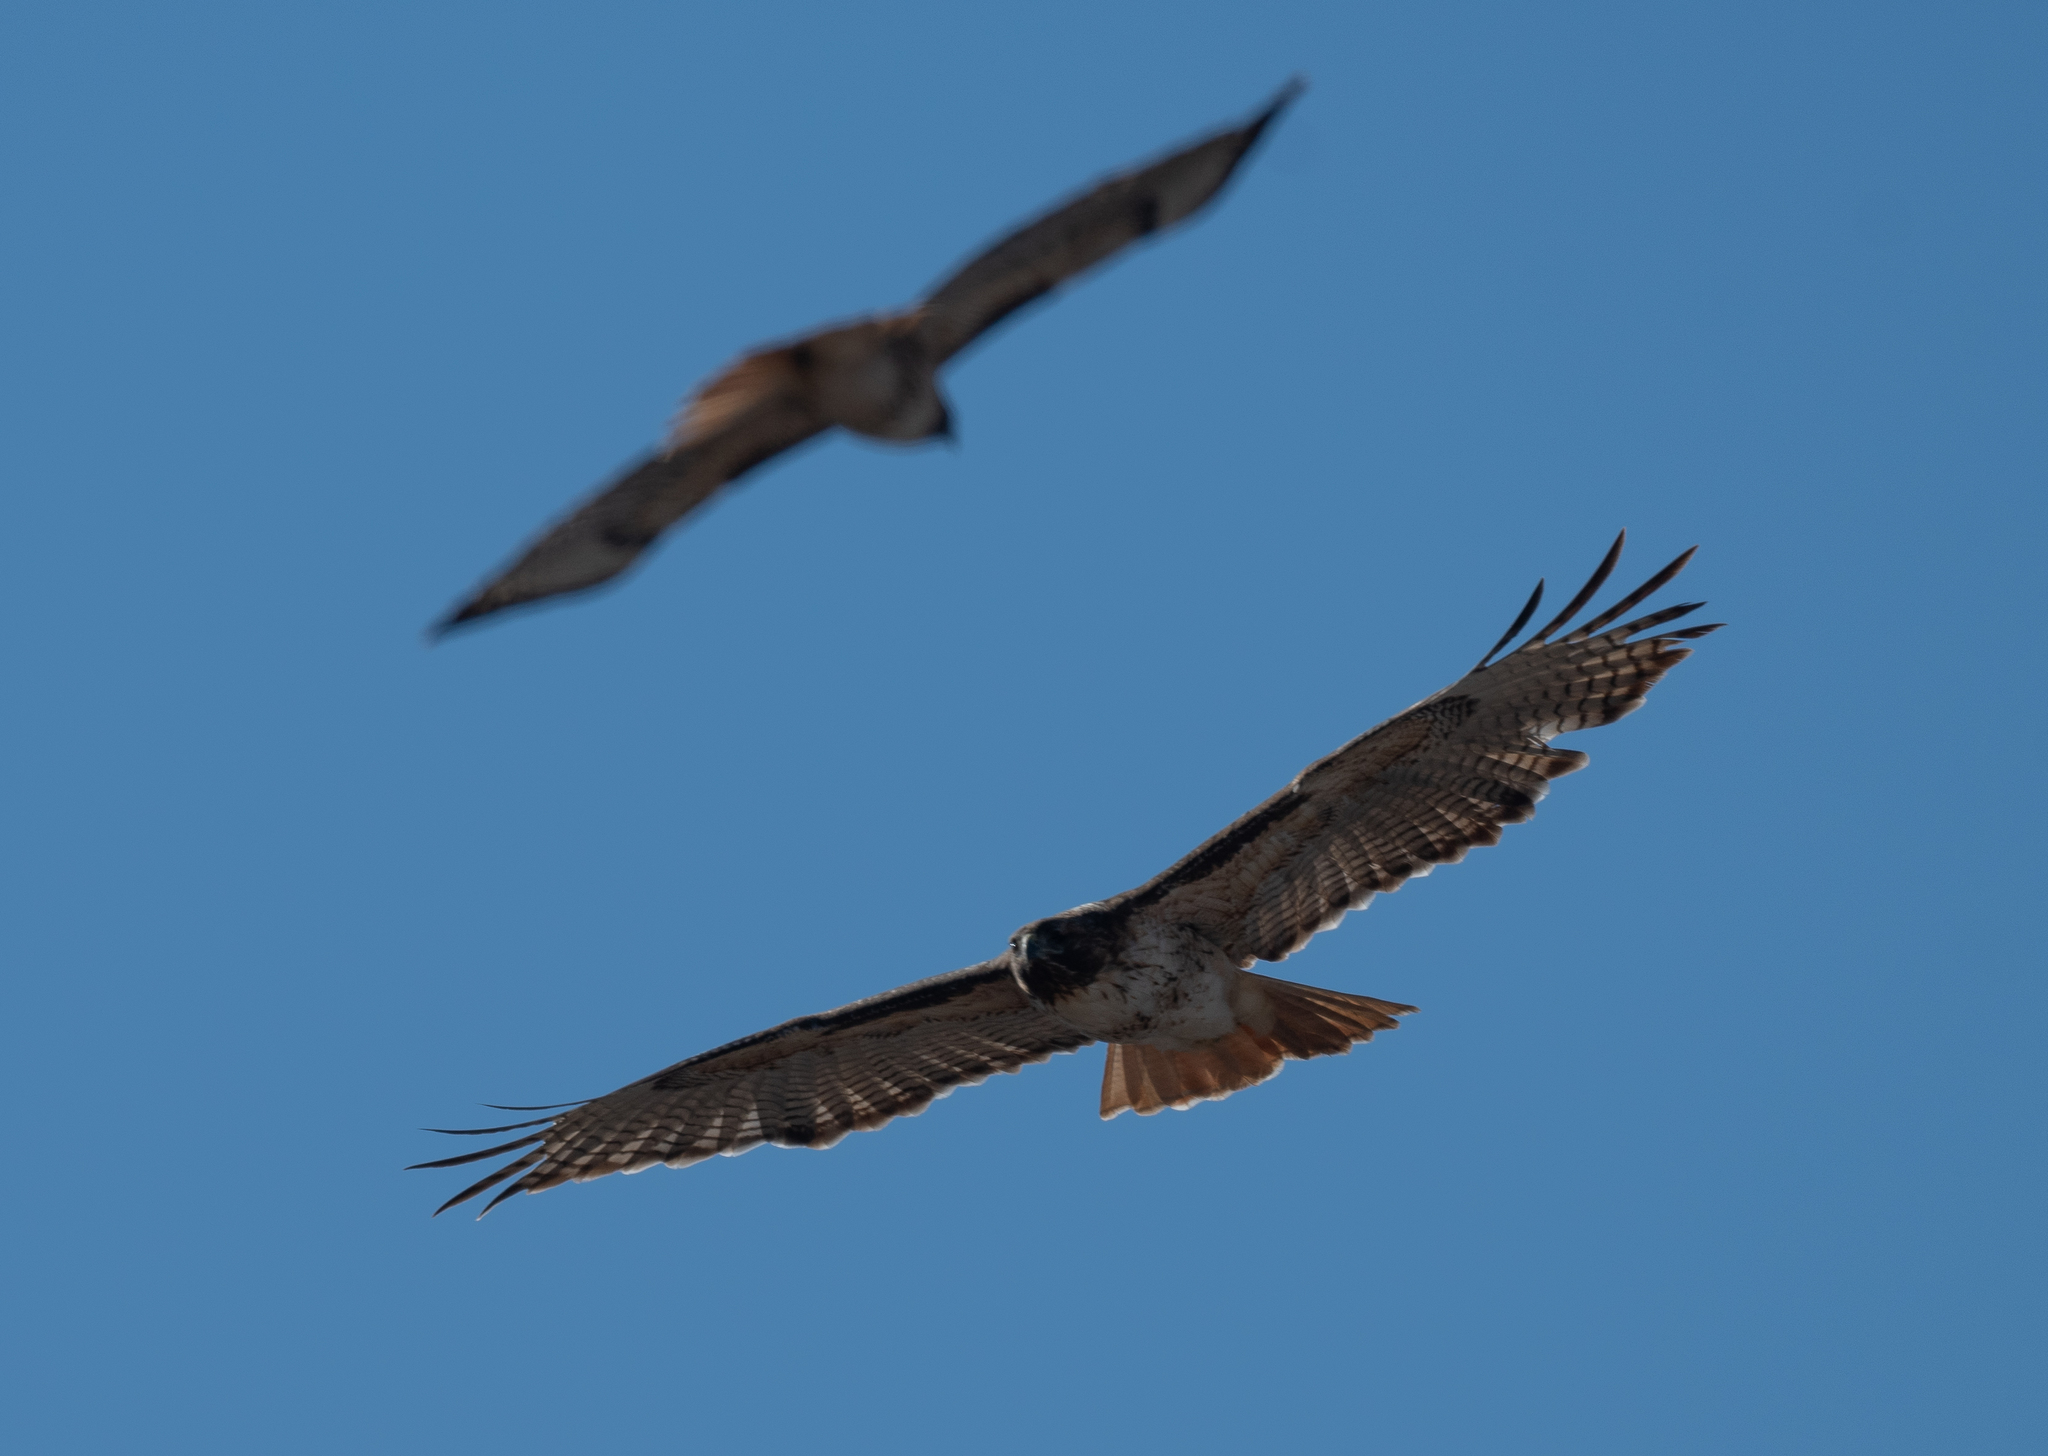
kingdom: Animalia
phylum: Chordata
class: Aves
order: Accipitriformes
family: Accipitridae
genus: Buteo
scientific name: Buteo jamaicensis
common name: Red-tailed hawk
